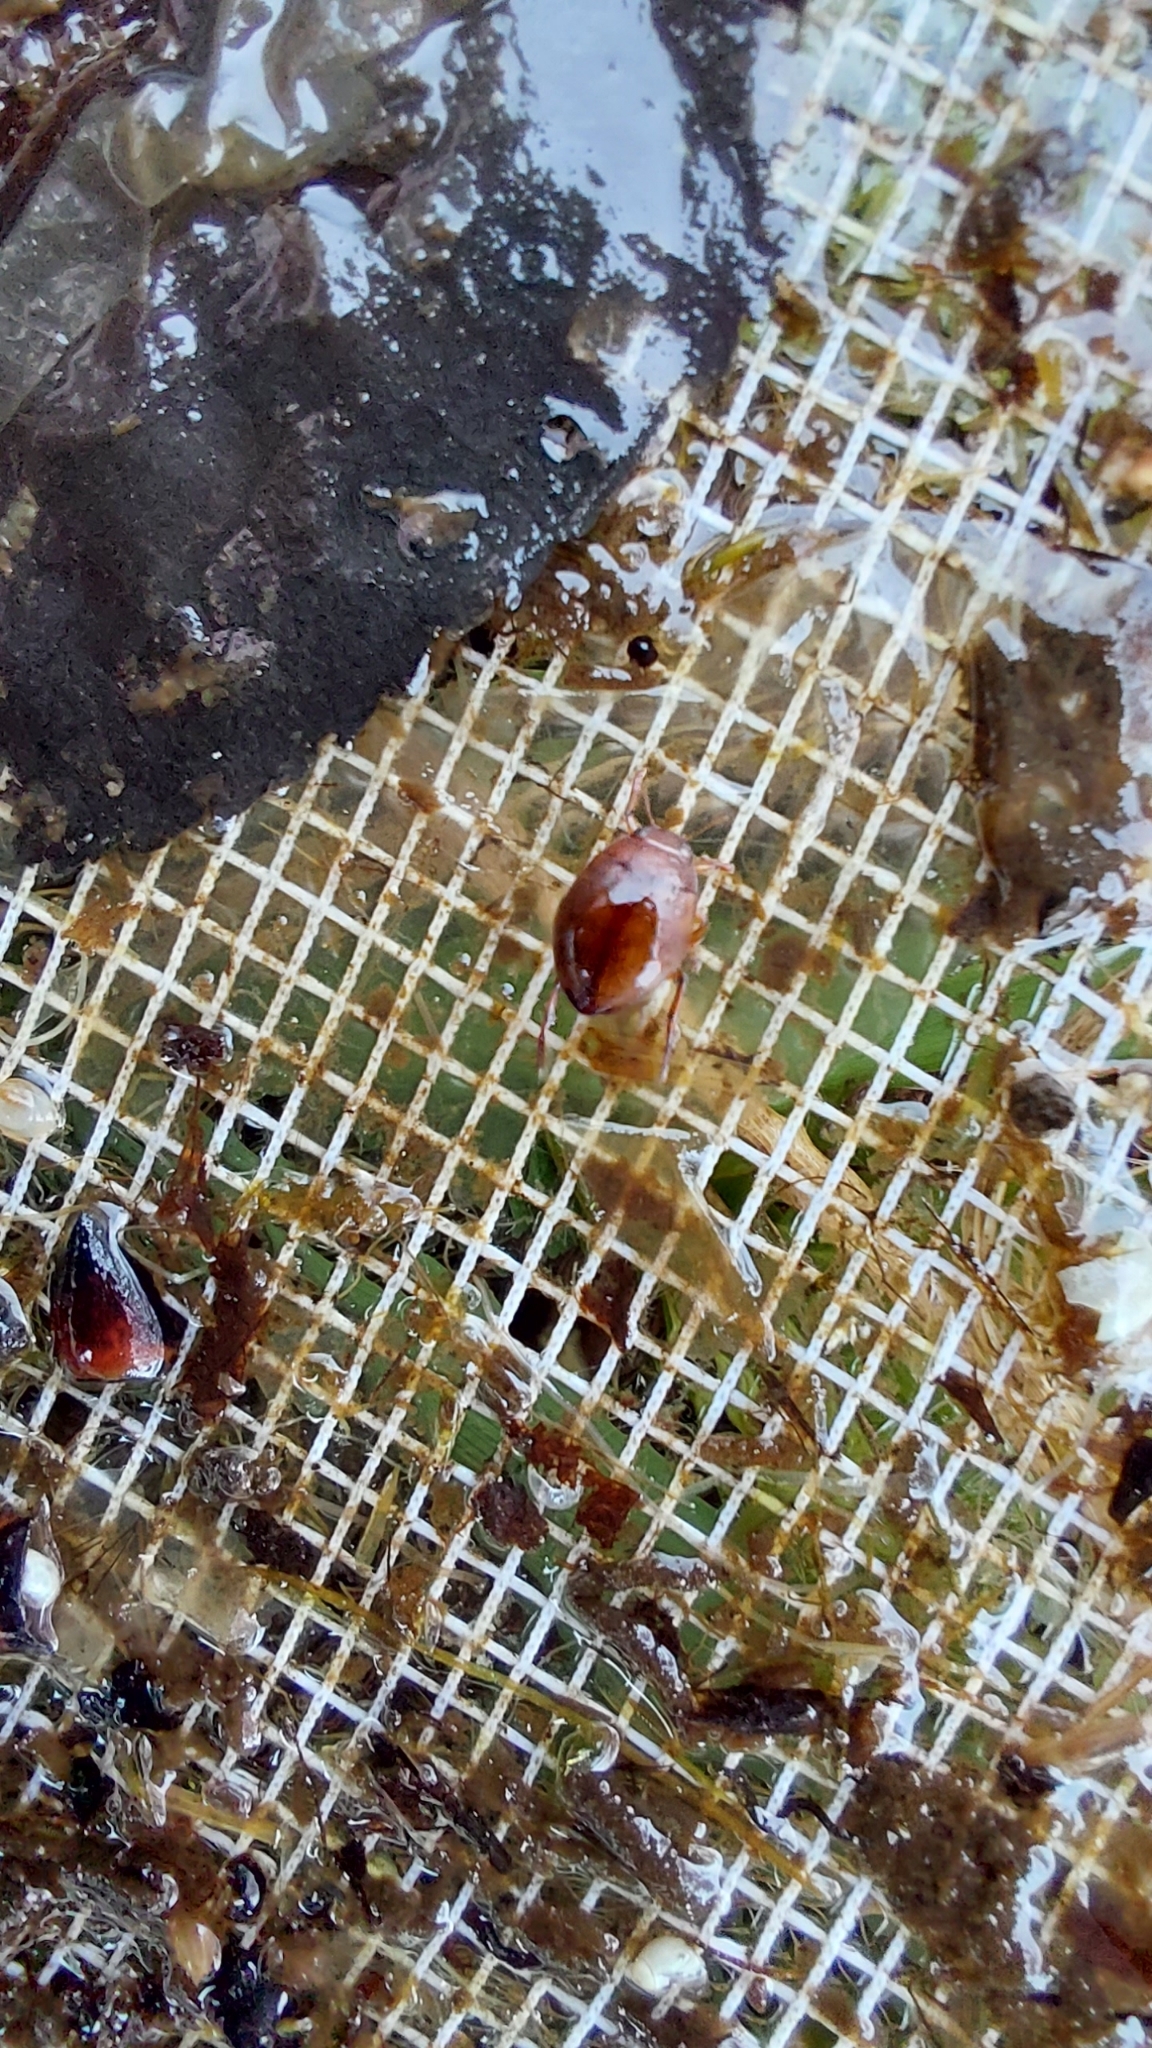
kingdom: Animalia
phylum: Arthropoda
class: Insecta
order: Coleoptera
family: Dytiscidae
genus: Hyphydrus
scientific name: Hyphydrus ovatus
